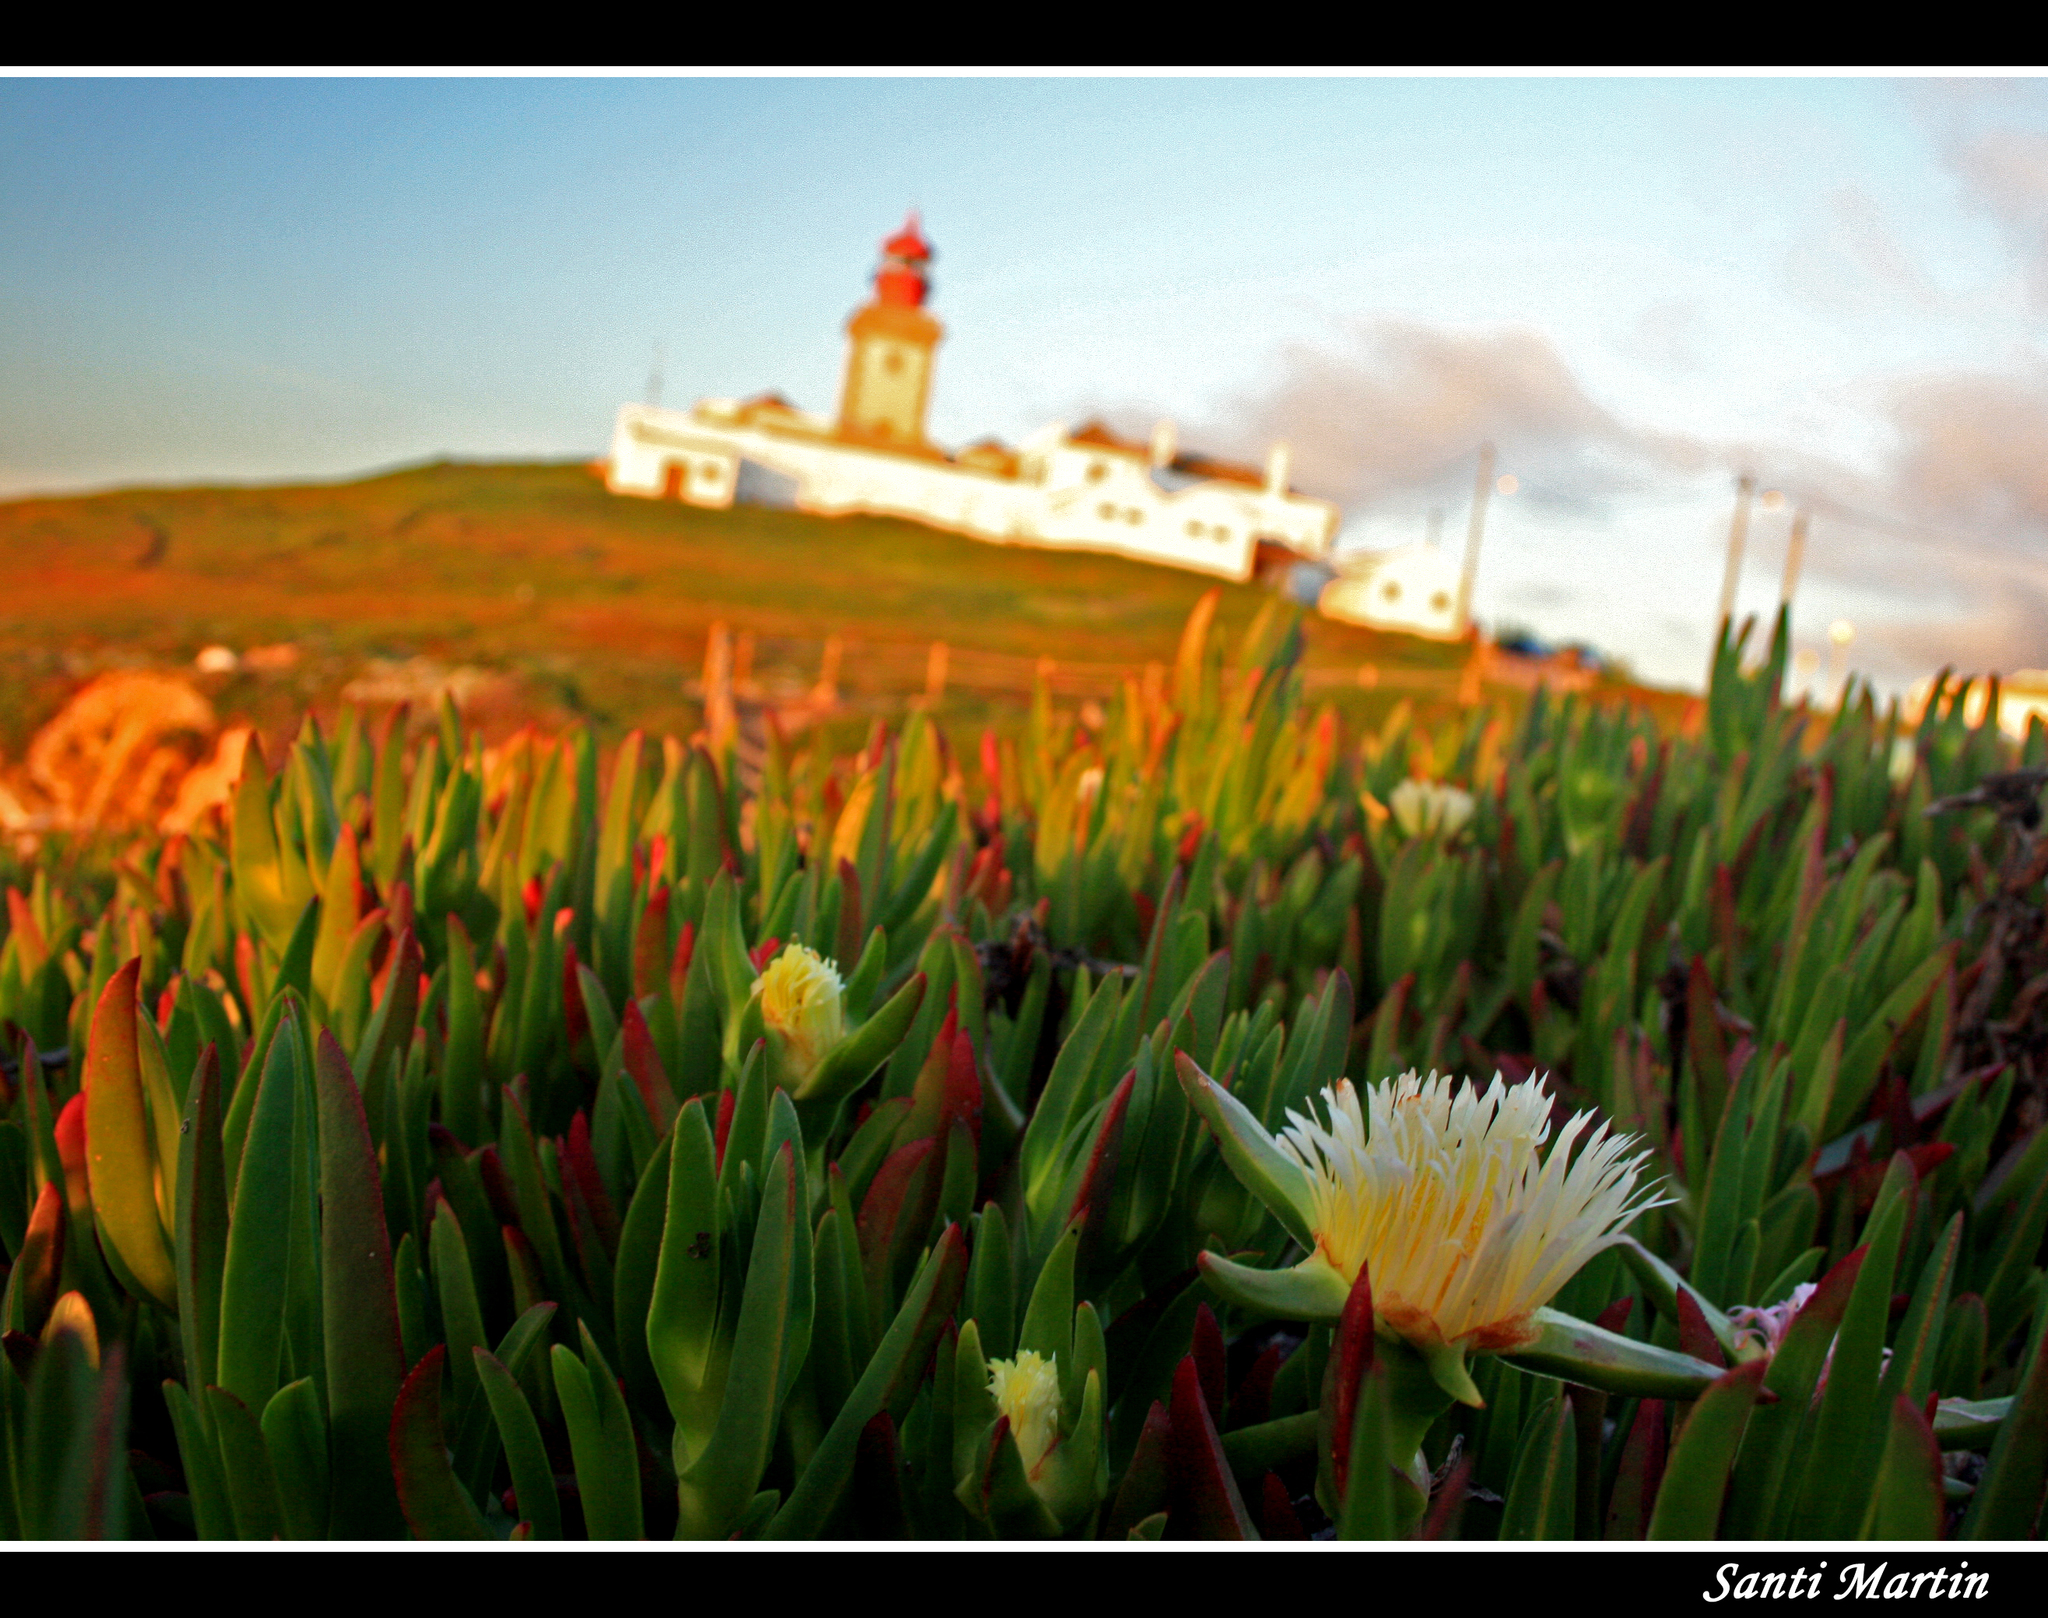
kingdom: Plantae
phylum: Tracheophyta
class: Magnoliopsida
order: Caryophyllales
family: Aizoaceae
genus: Carpobrotus
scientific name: Carpobrotus edulis
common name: Hottentot-fig
